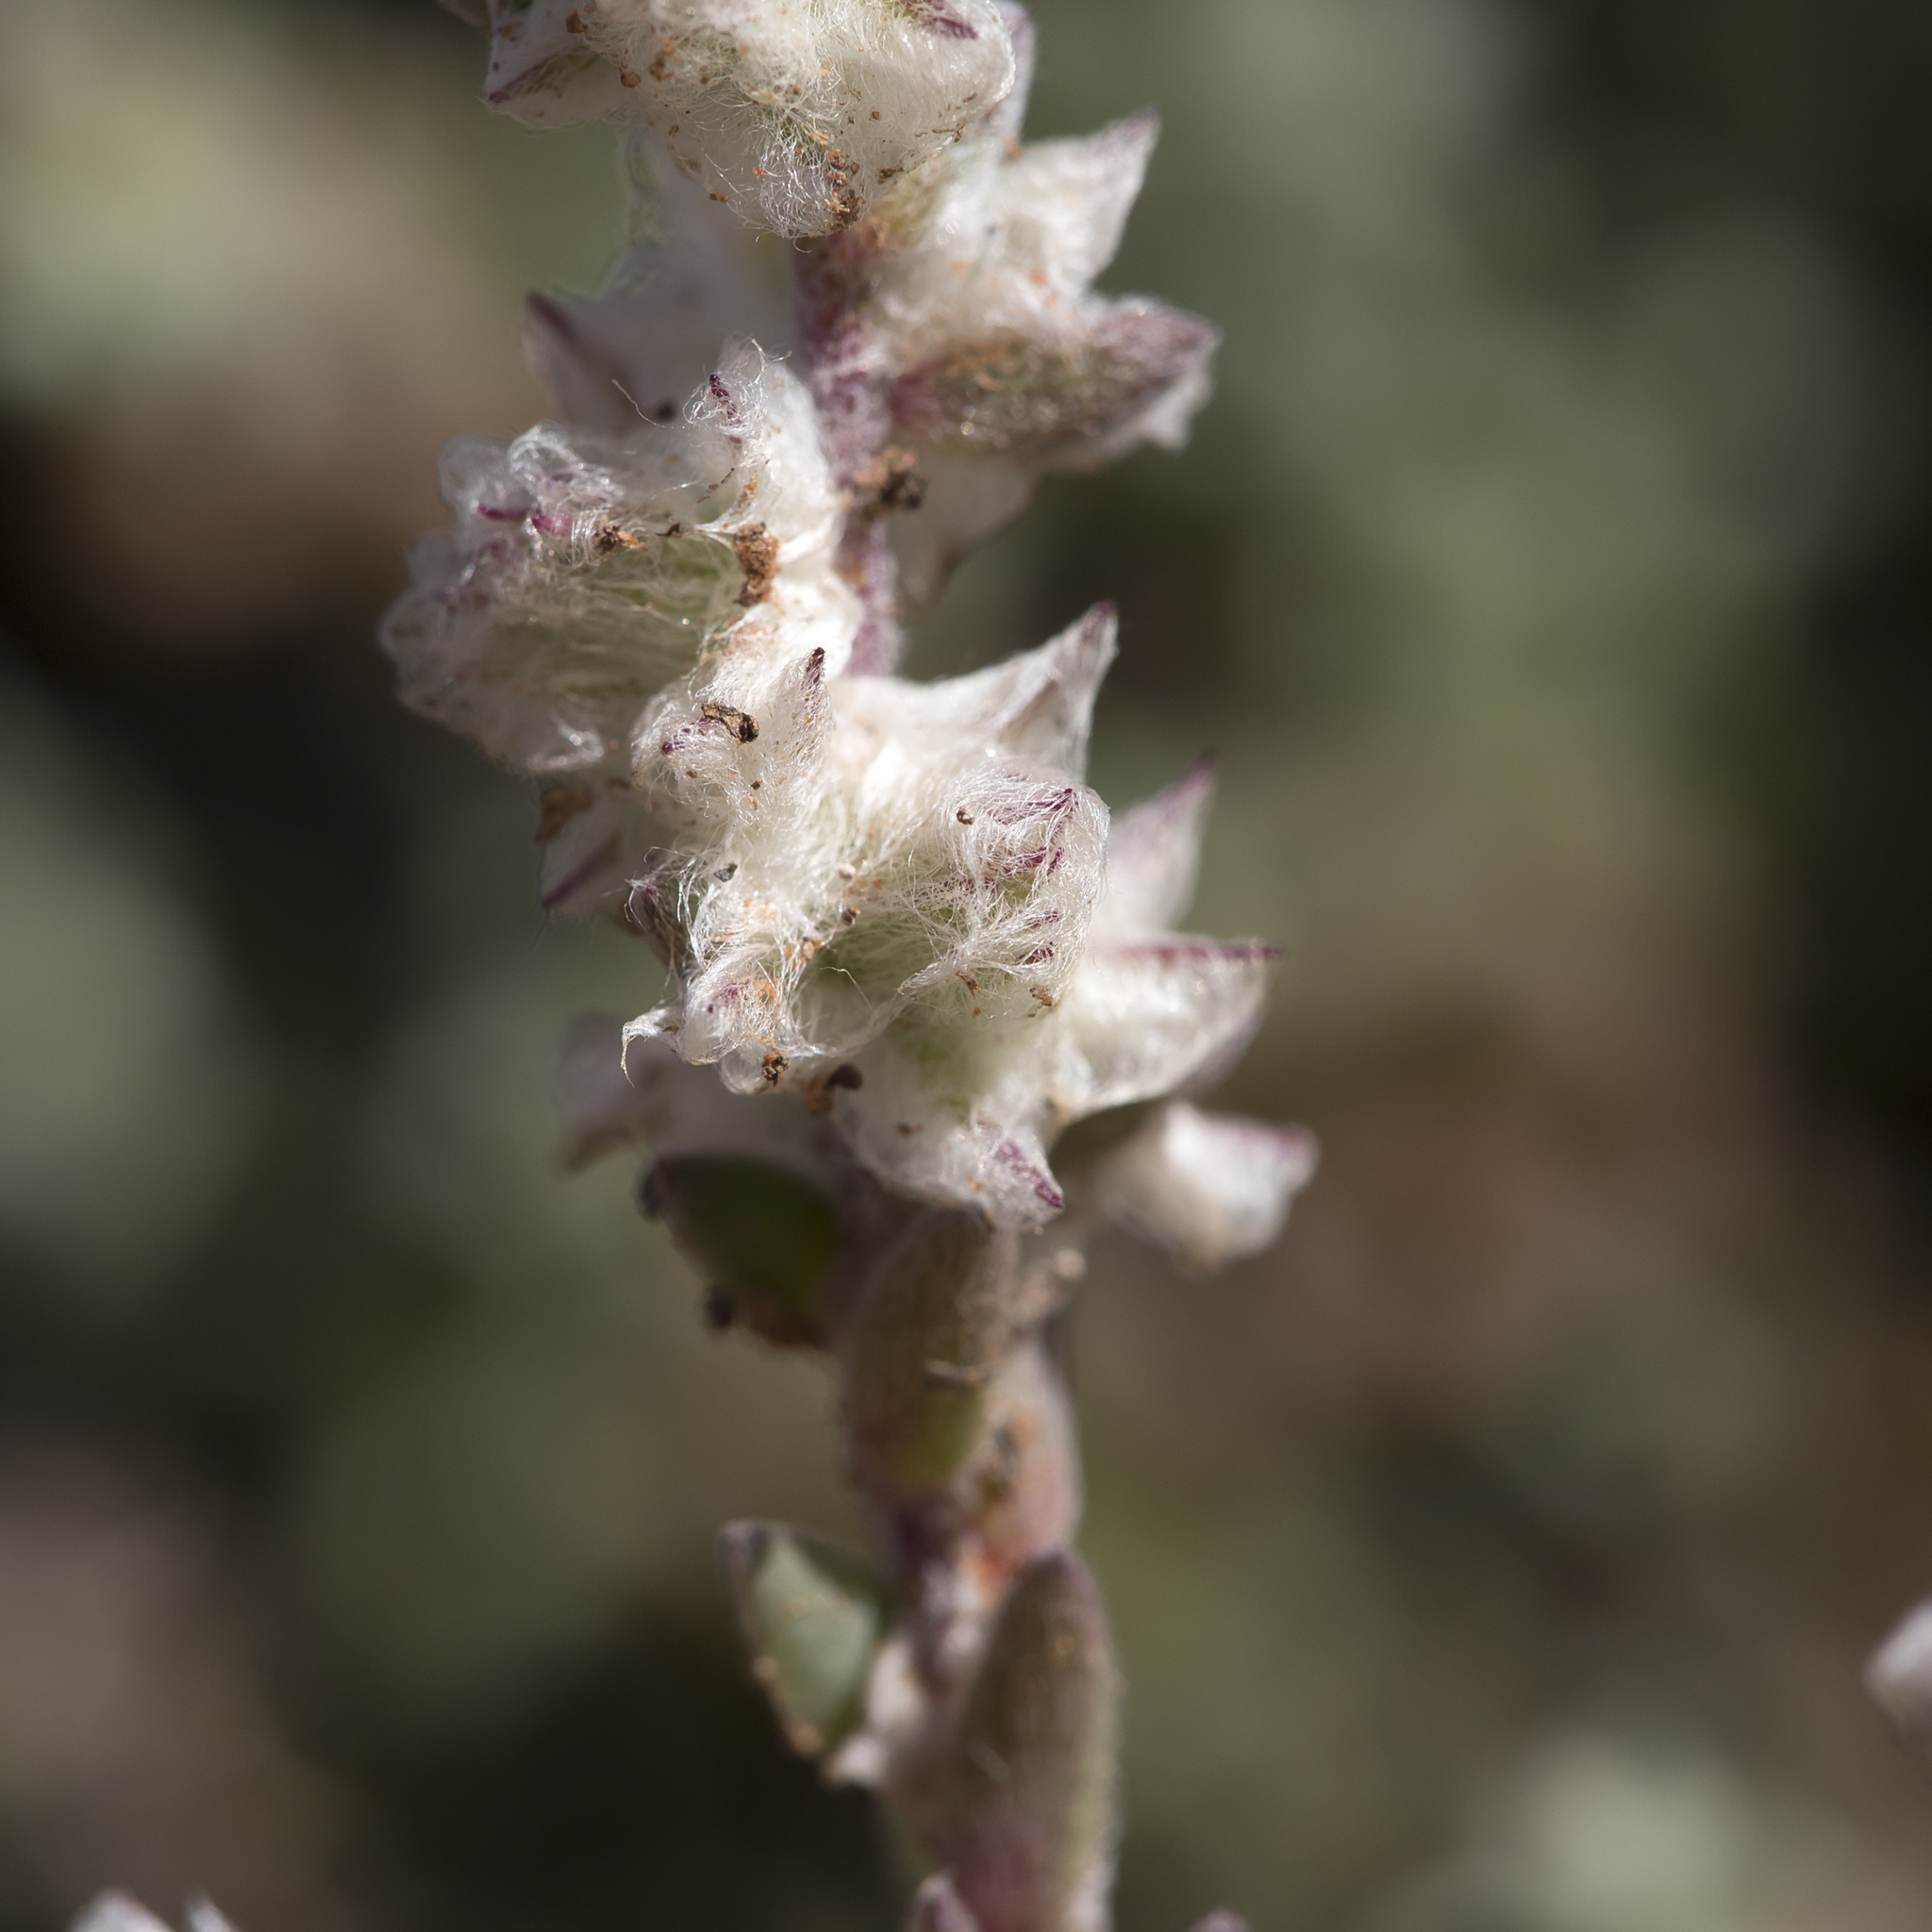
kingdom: Plantae
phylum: Tracheophyta
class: Magnoliopsida
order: Caryophyllales
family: Amaranthaceae
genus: Maireana
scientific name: Maireana sclerolaenoides
